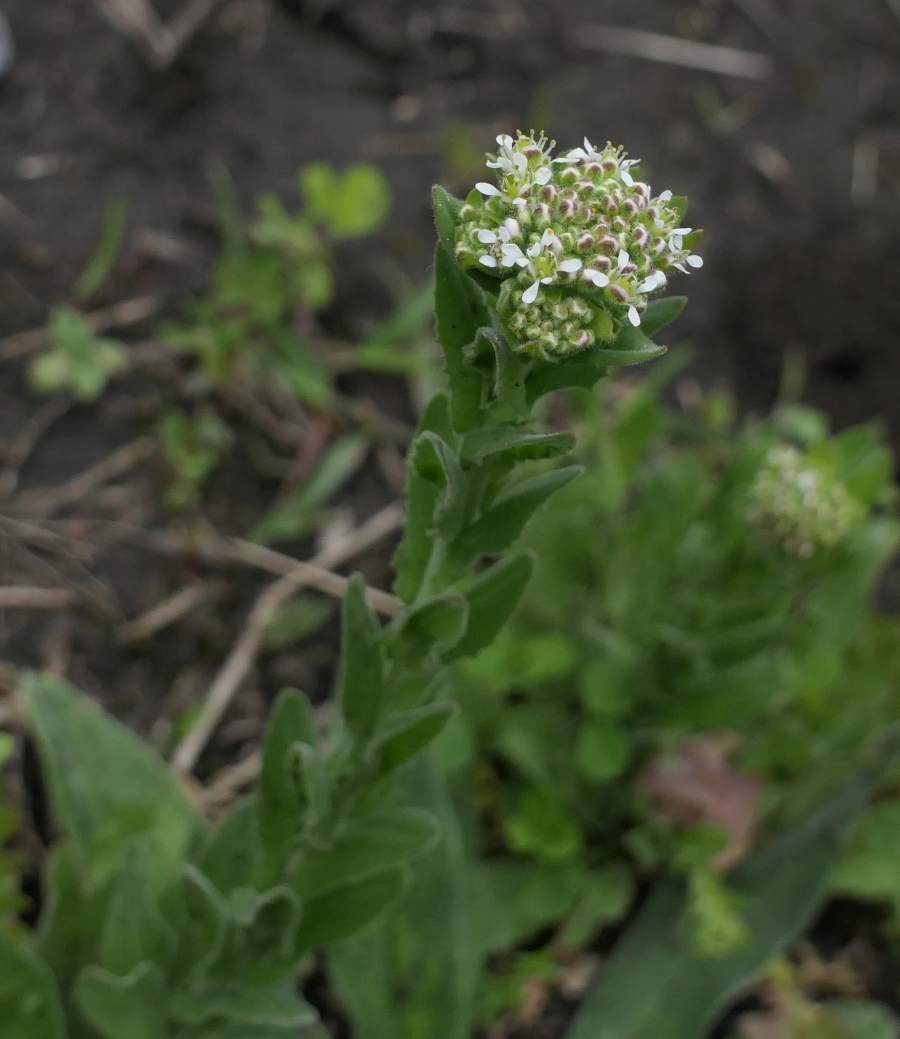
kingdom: Plantae
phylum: Tracheophyta
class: Magnoliopsida
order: Brassicales
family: Brassicaceae
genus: Lepidium
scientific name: Lepidium campestre
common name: Field pepperwort
